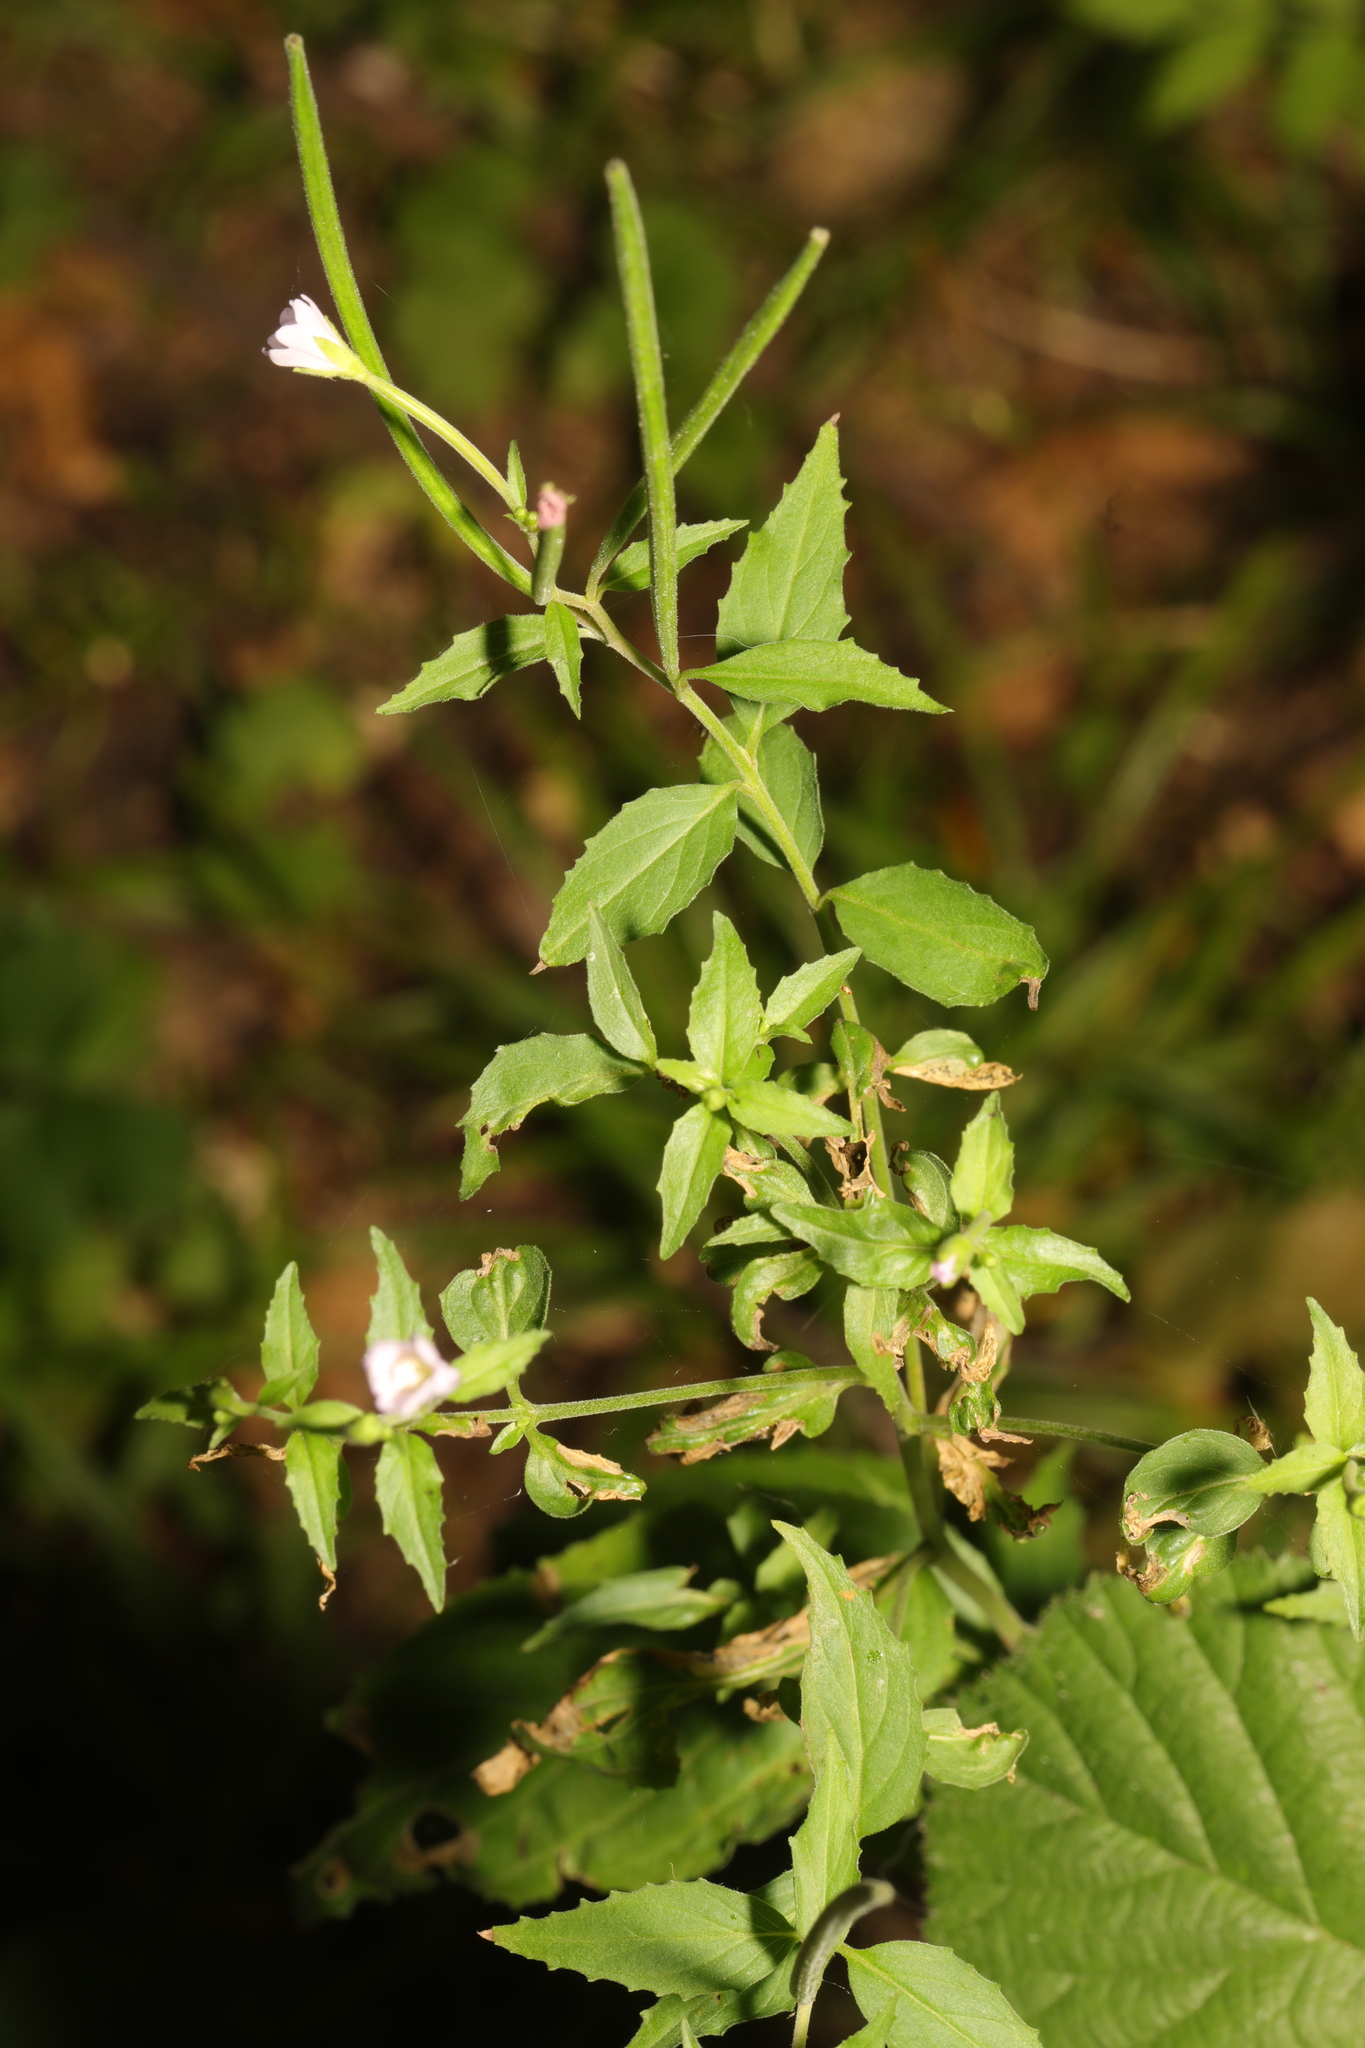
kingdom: Plantae
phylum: Tracheophyta
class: Magnoliopsida
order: Myrtales
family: Onagraceae
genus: Epilobium
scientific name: Epilobium montanum
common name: Broad-leaved willowherb
